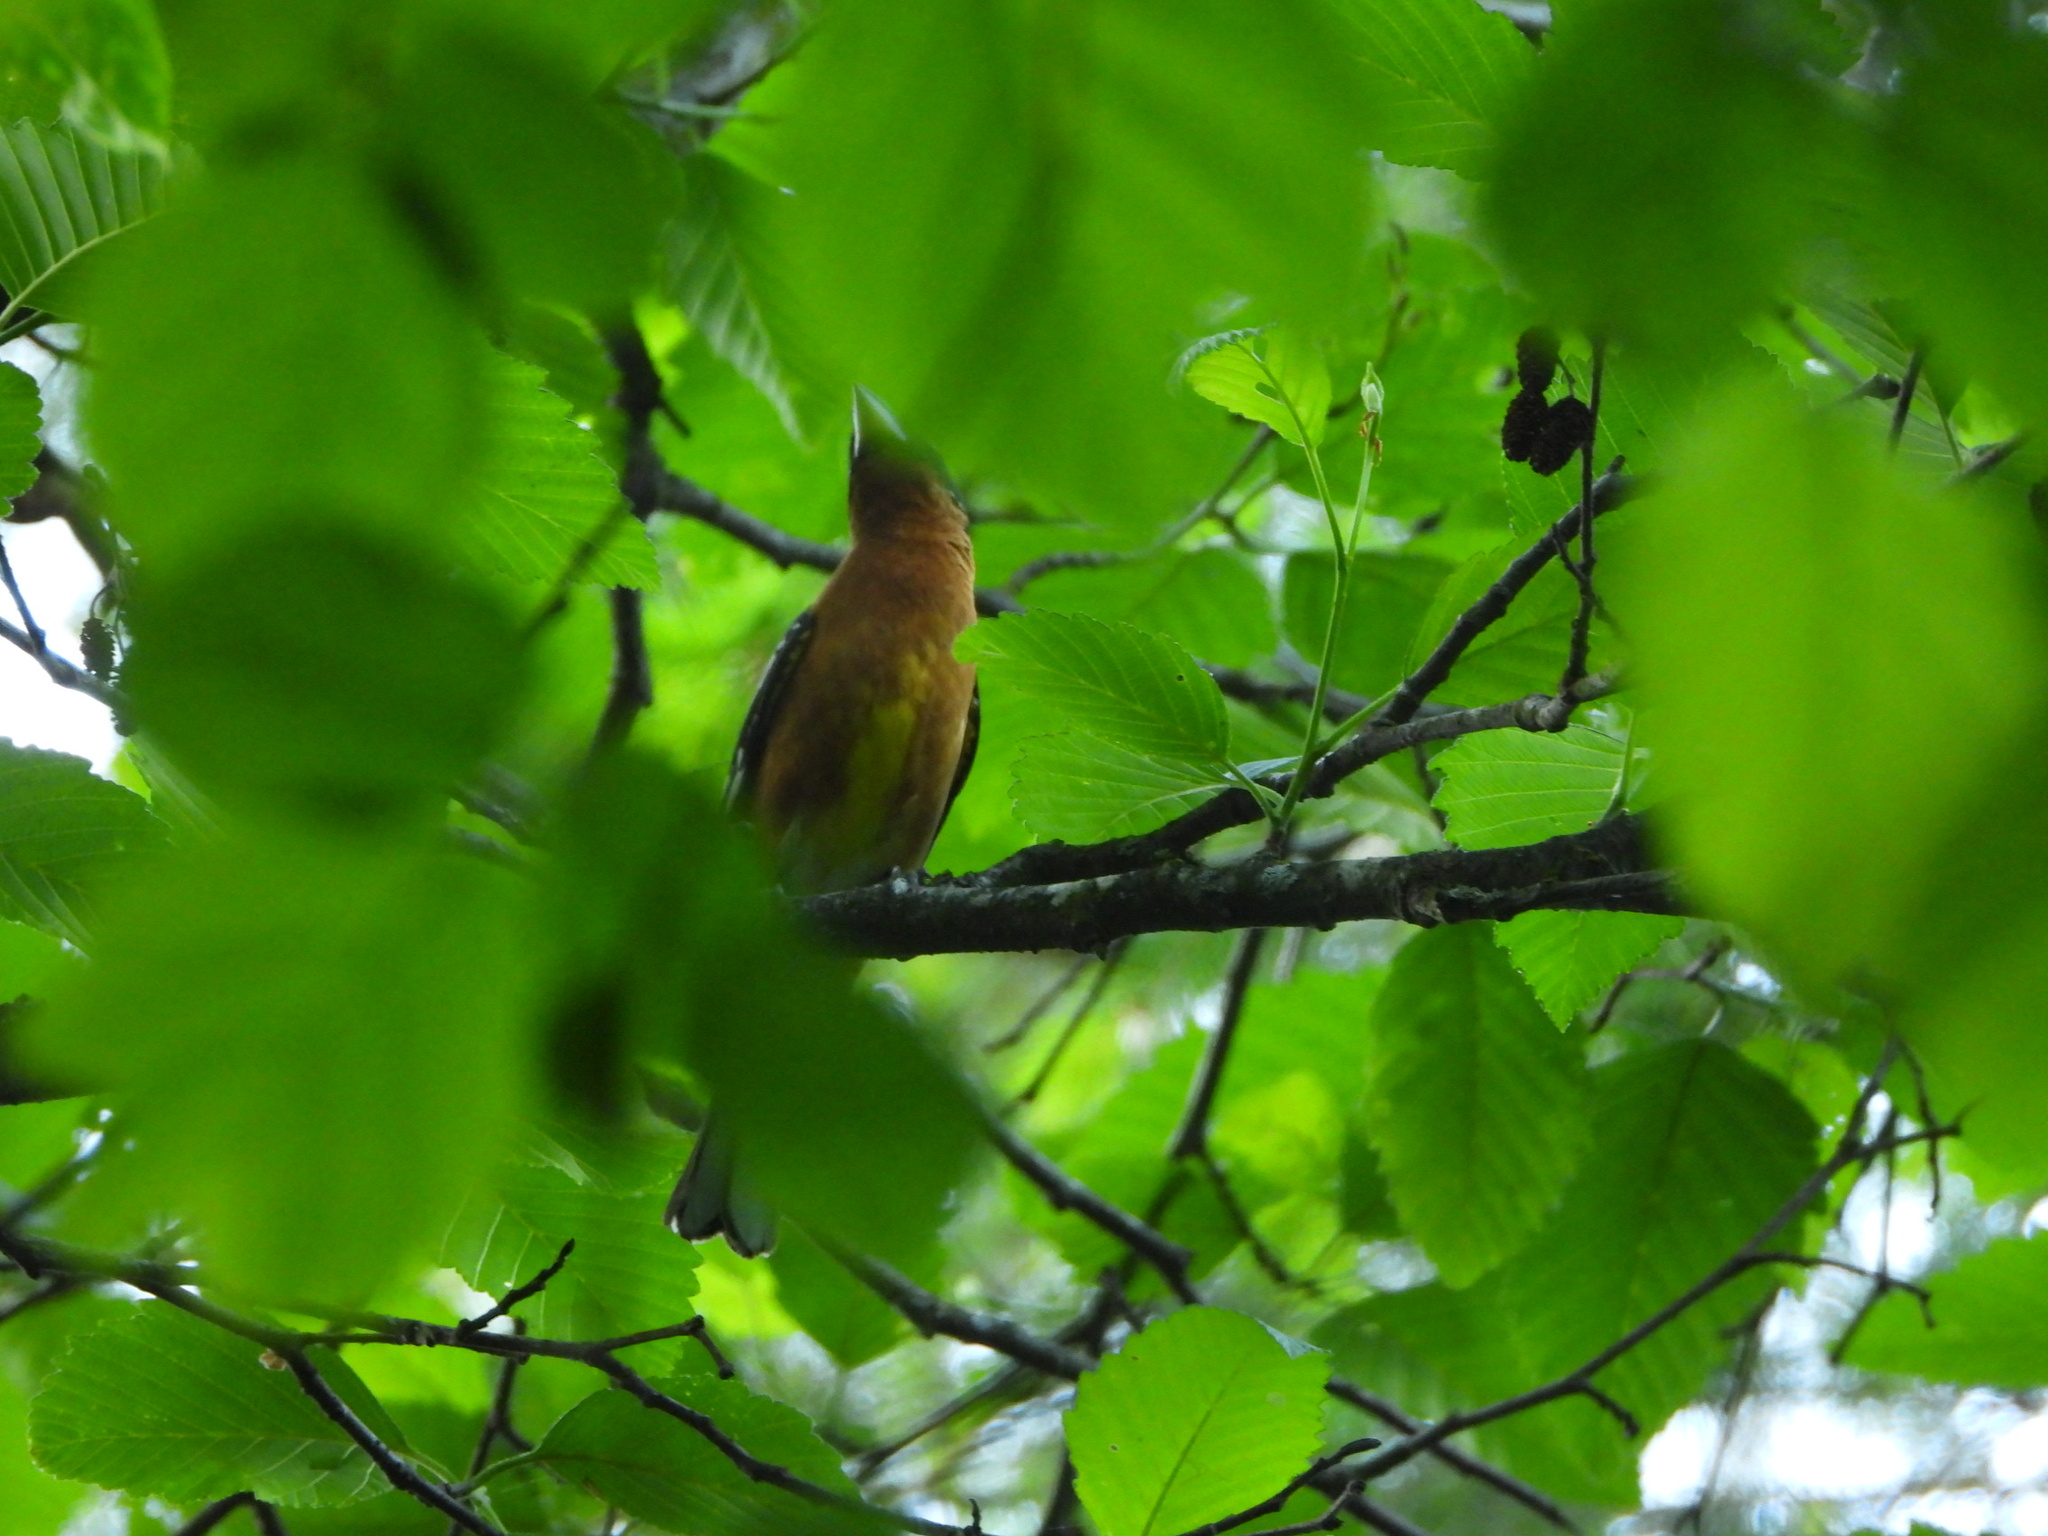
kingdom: Animalia
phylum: Chordata
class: Aves
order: Passeriformes
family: Cardinalidae
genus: Pheucticus
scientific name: Pheucticus melanocephalus
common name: Black-headed grosbeak
